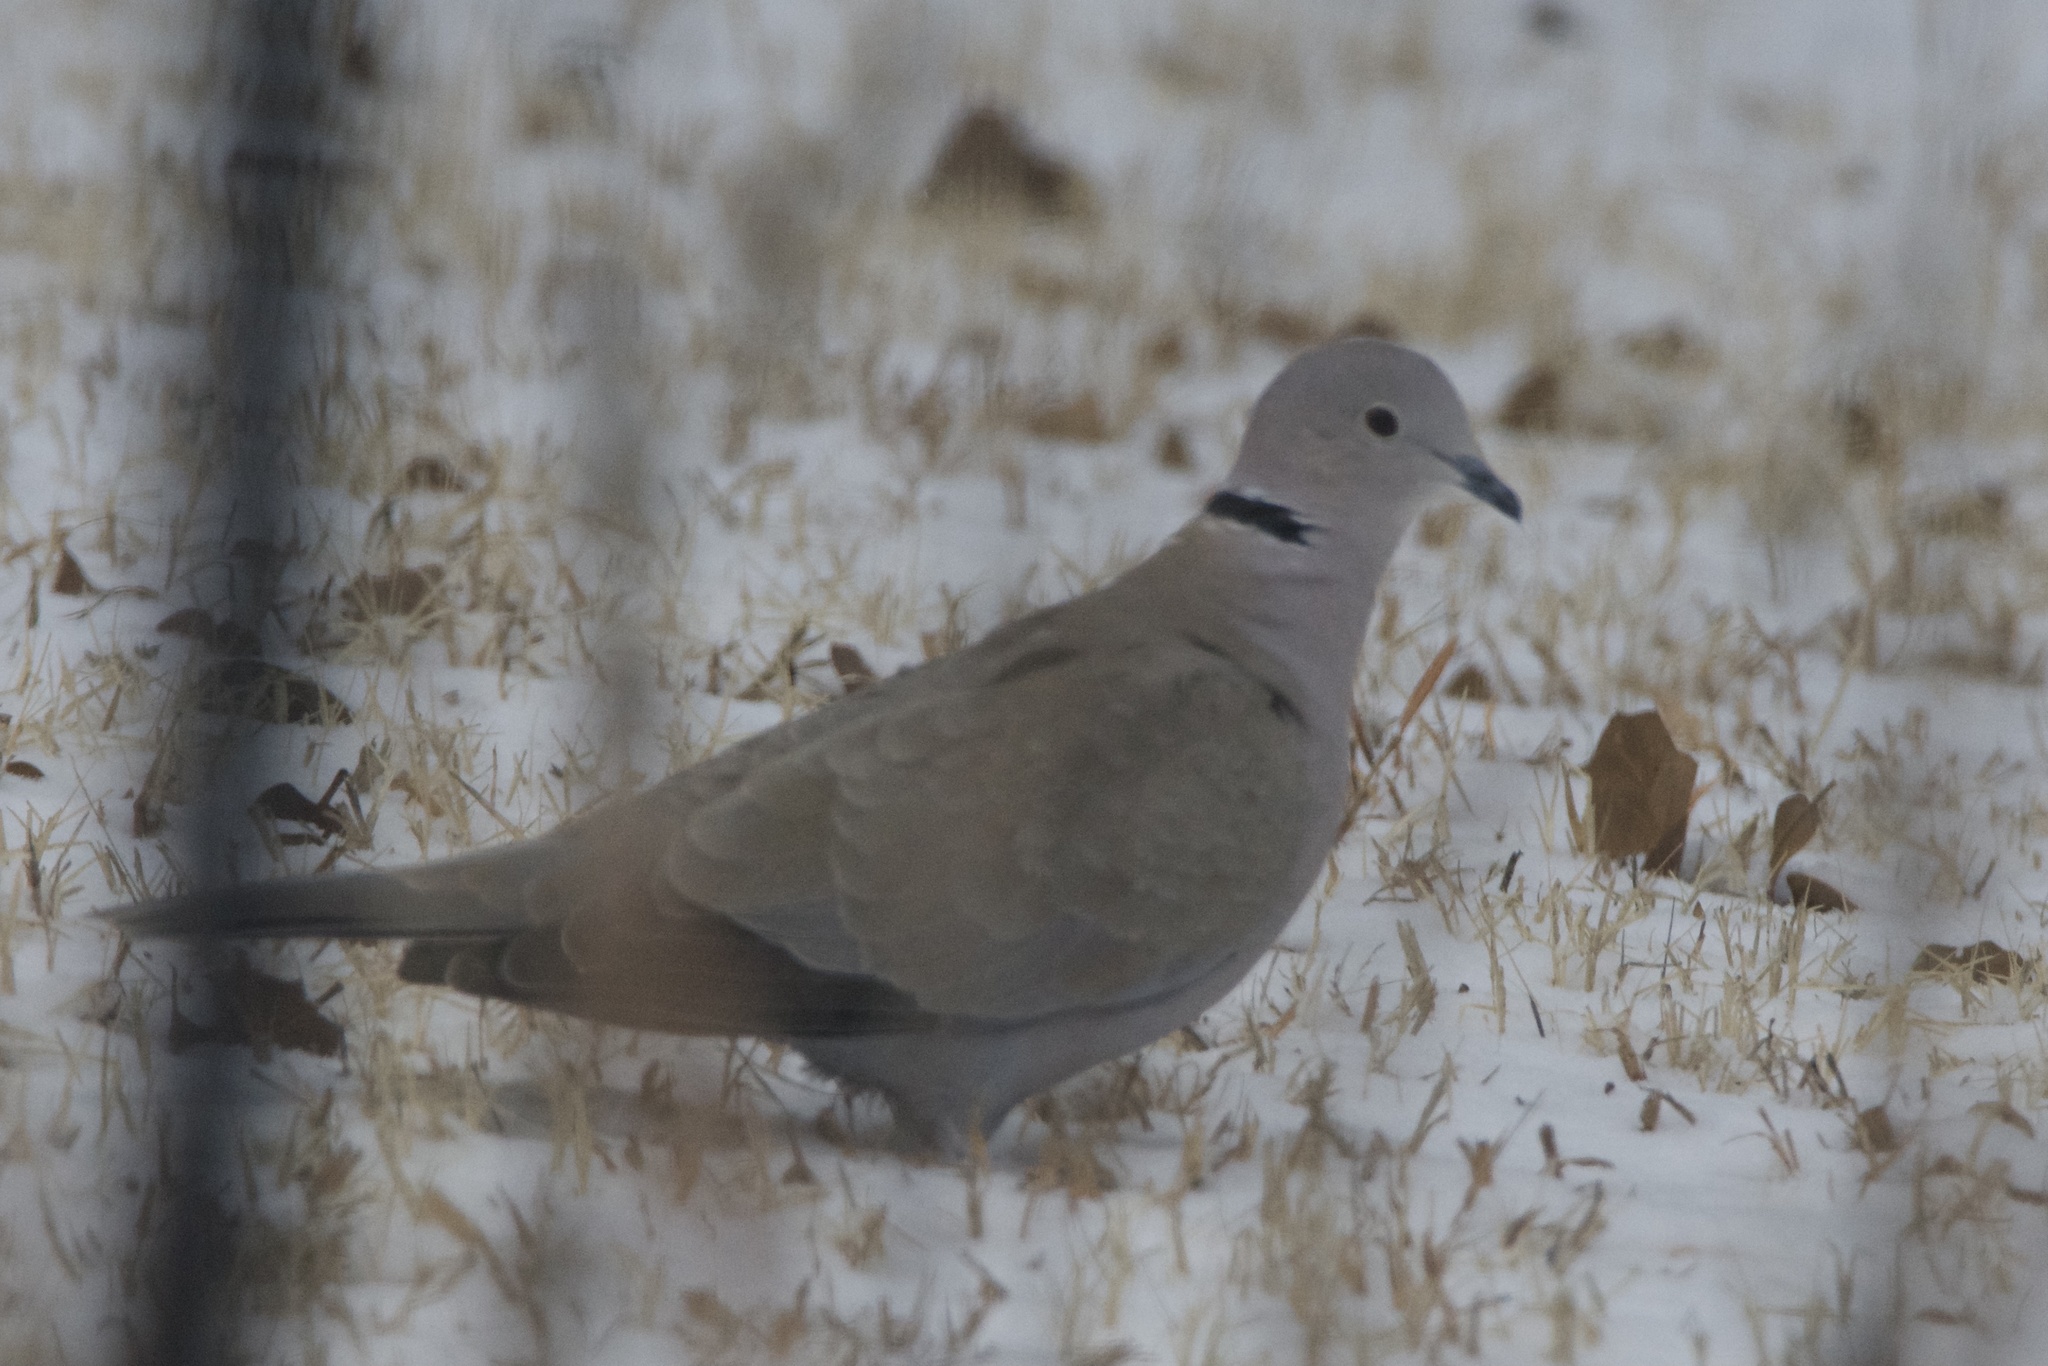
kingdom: Animalia
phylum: Chordata
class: Aves
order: Columbiformes
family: Columbidae
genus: Streptopelia
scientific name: Streptopelia decaocto
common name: Eurasian collared dove
